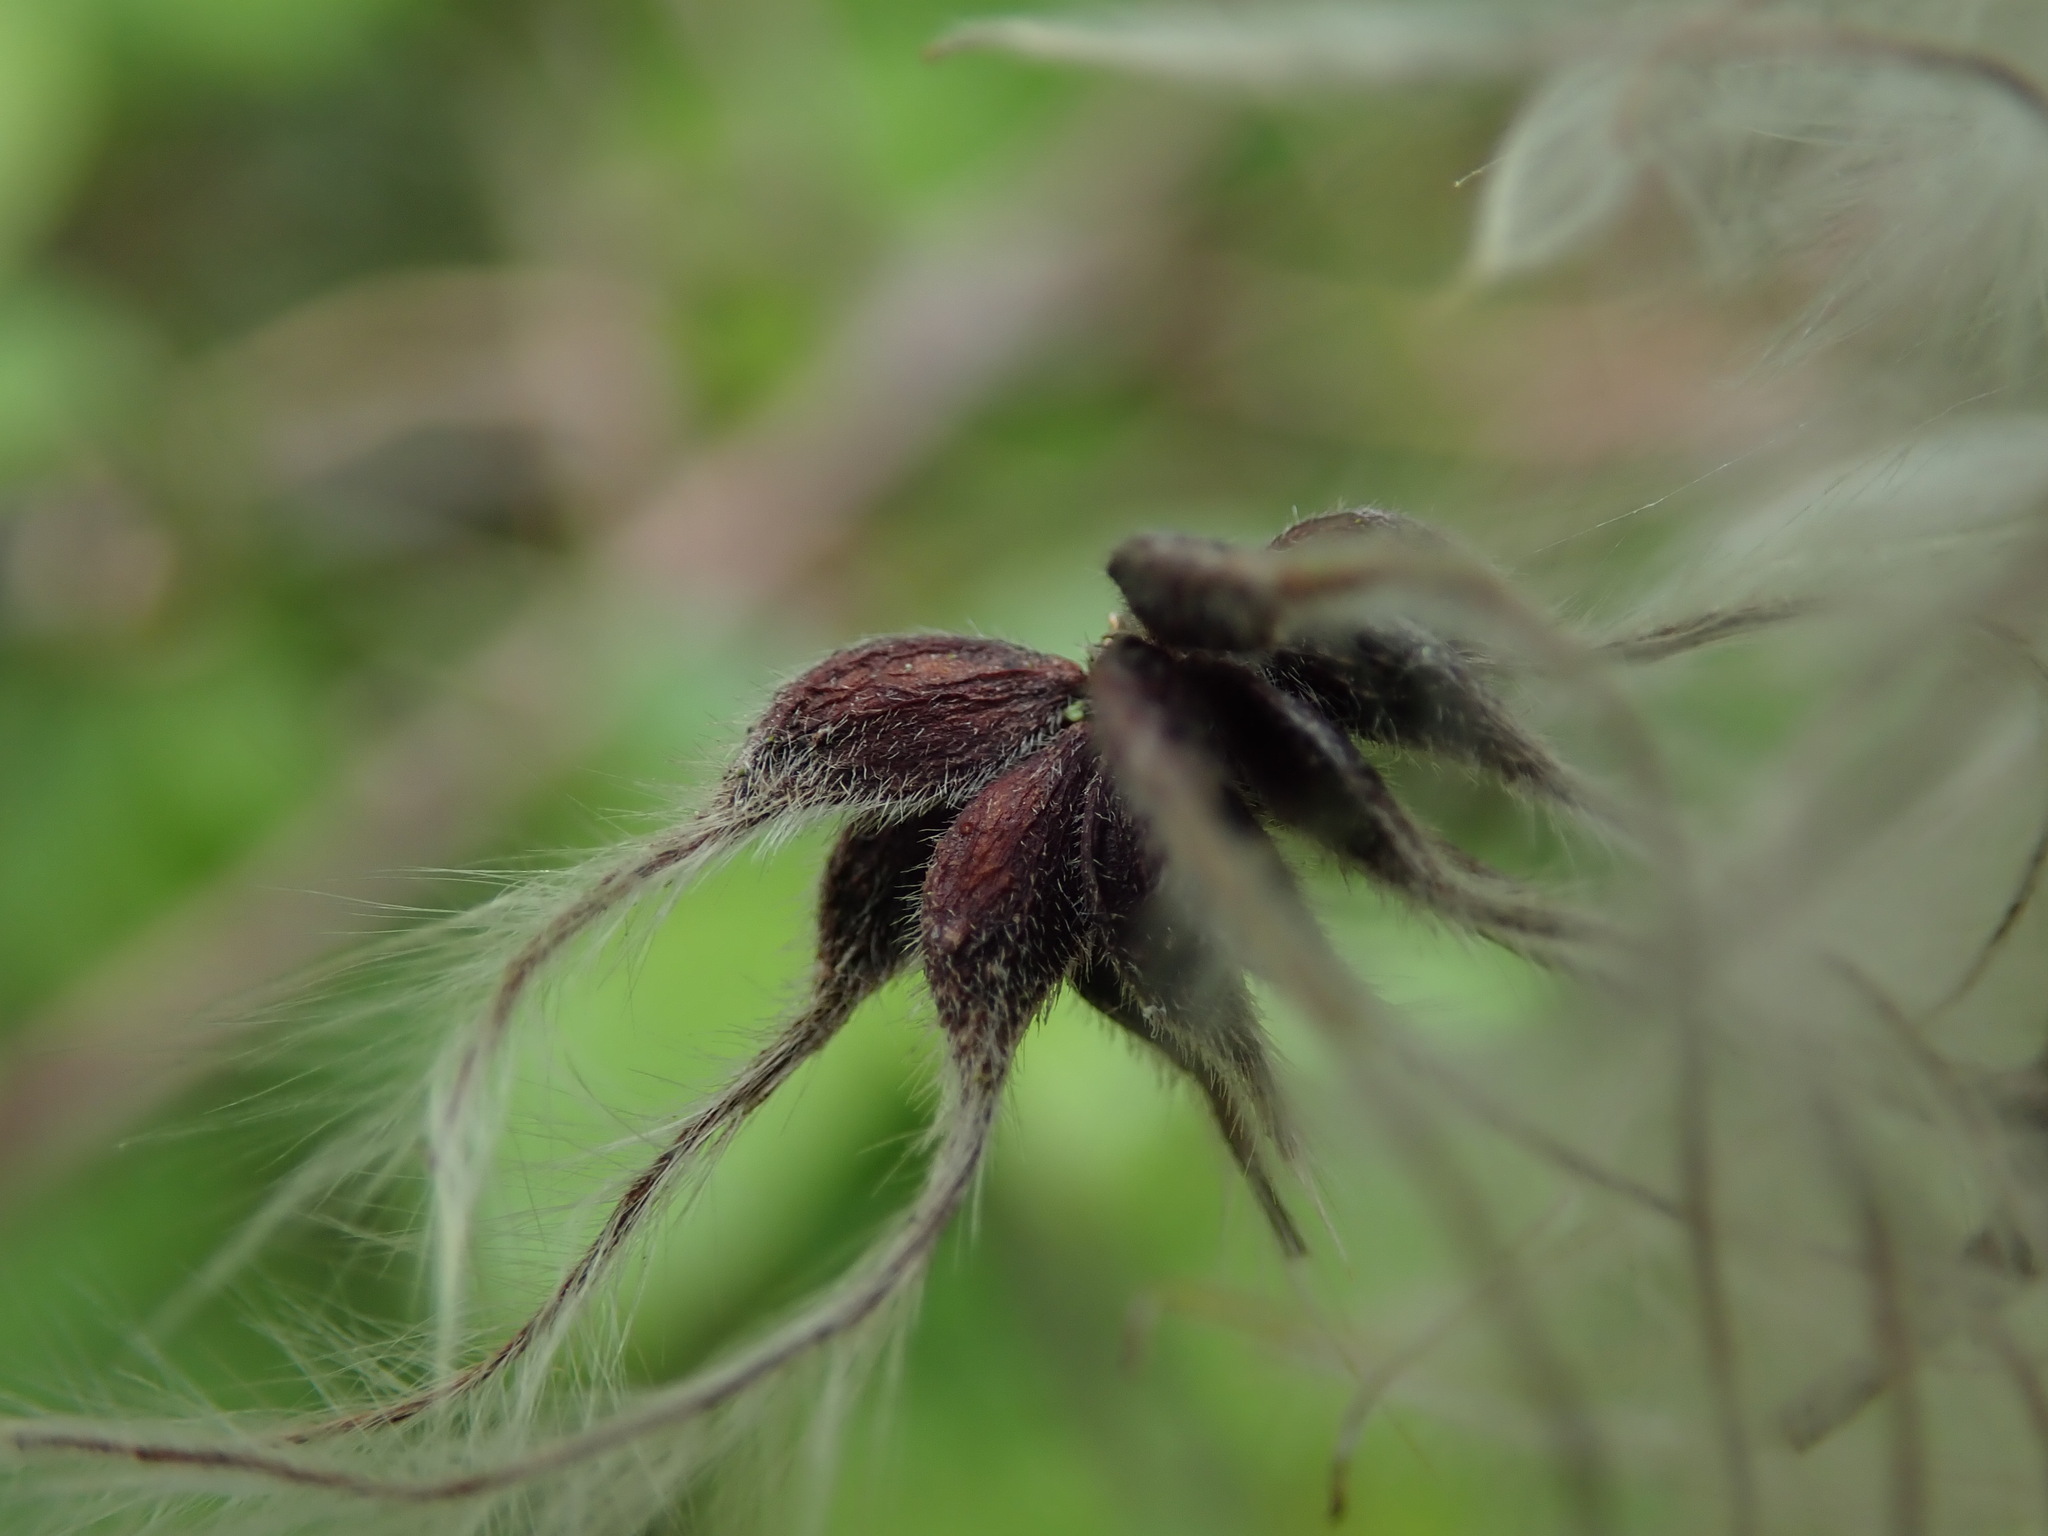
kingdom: Plantae
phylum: Tracheophyta
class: Magnoliopsida
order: Ranunculales
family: Ranunculaceae
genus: Clematis
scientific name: Clematis vitalba
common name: Evergreen clematis
